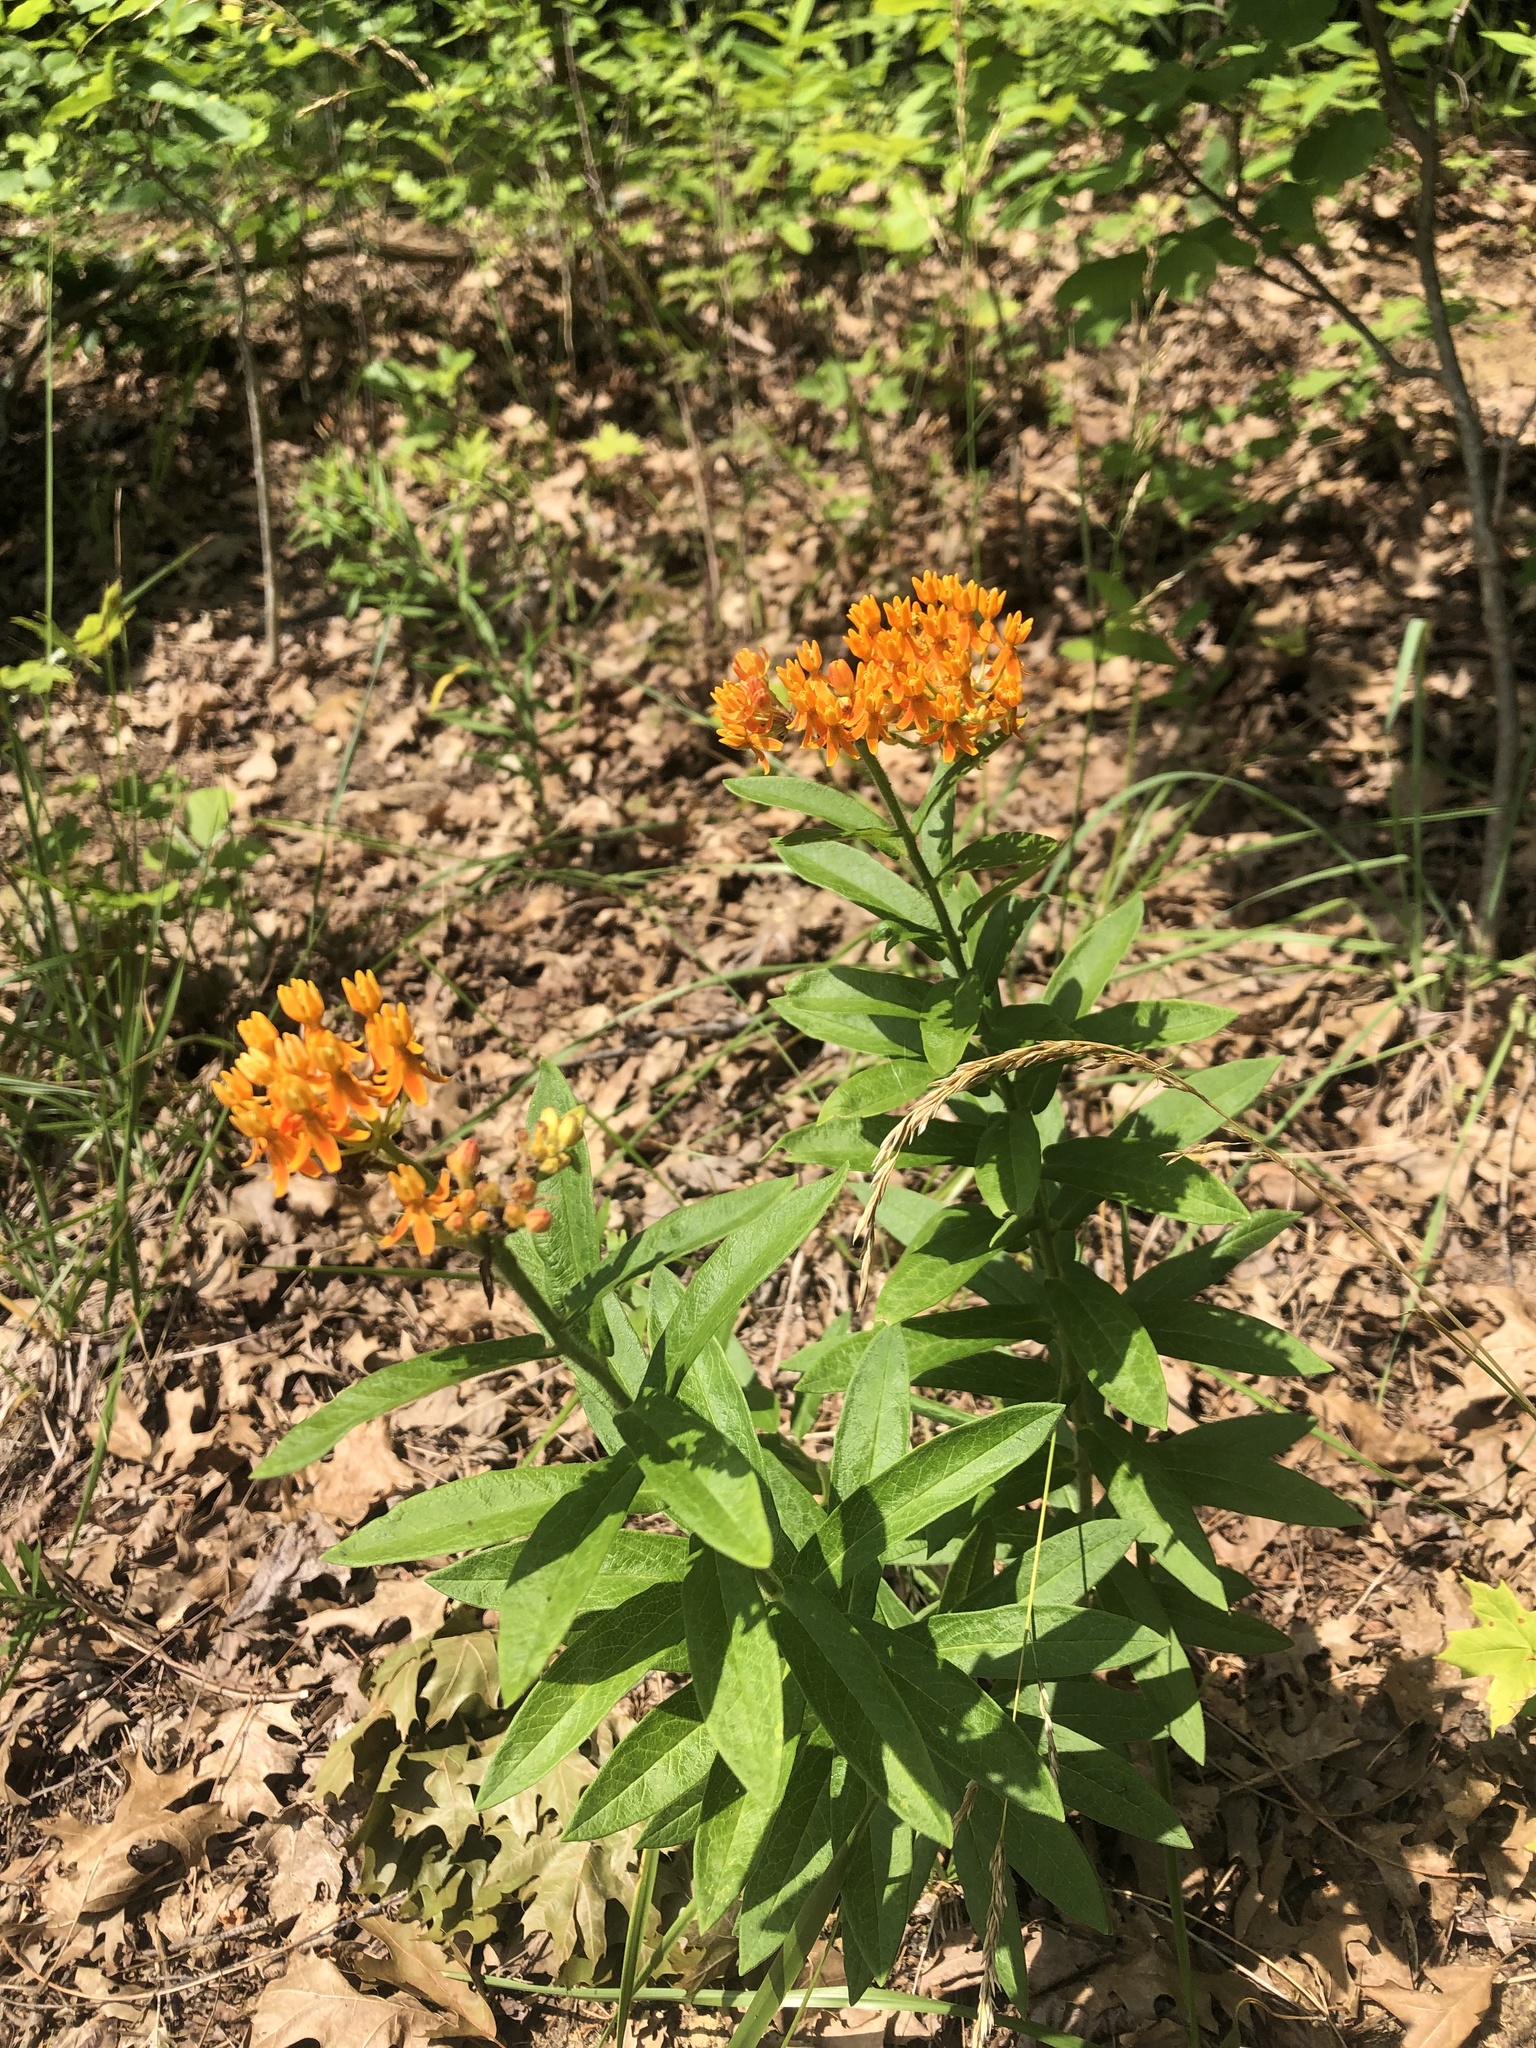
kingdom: Plantae
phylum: Tracheophyta
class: Magnoliopsida
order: Gentianales
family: Apocynaceae
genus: Asclepias
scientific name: Asclepias tuberosa
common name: Butterfly milkweed
